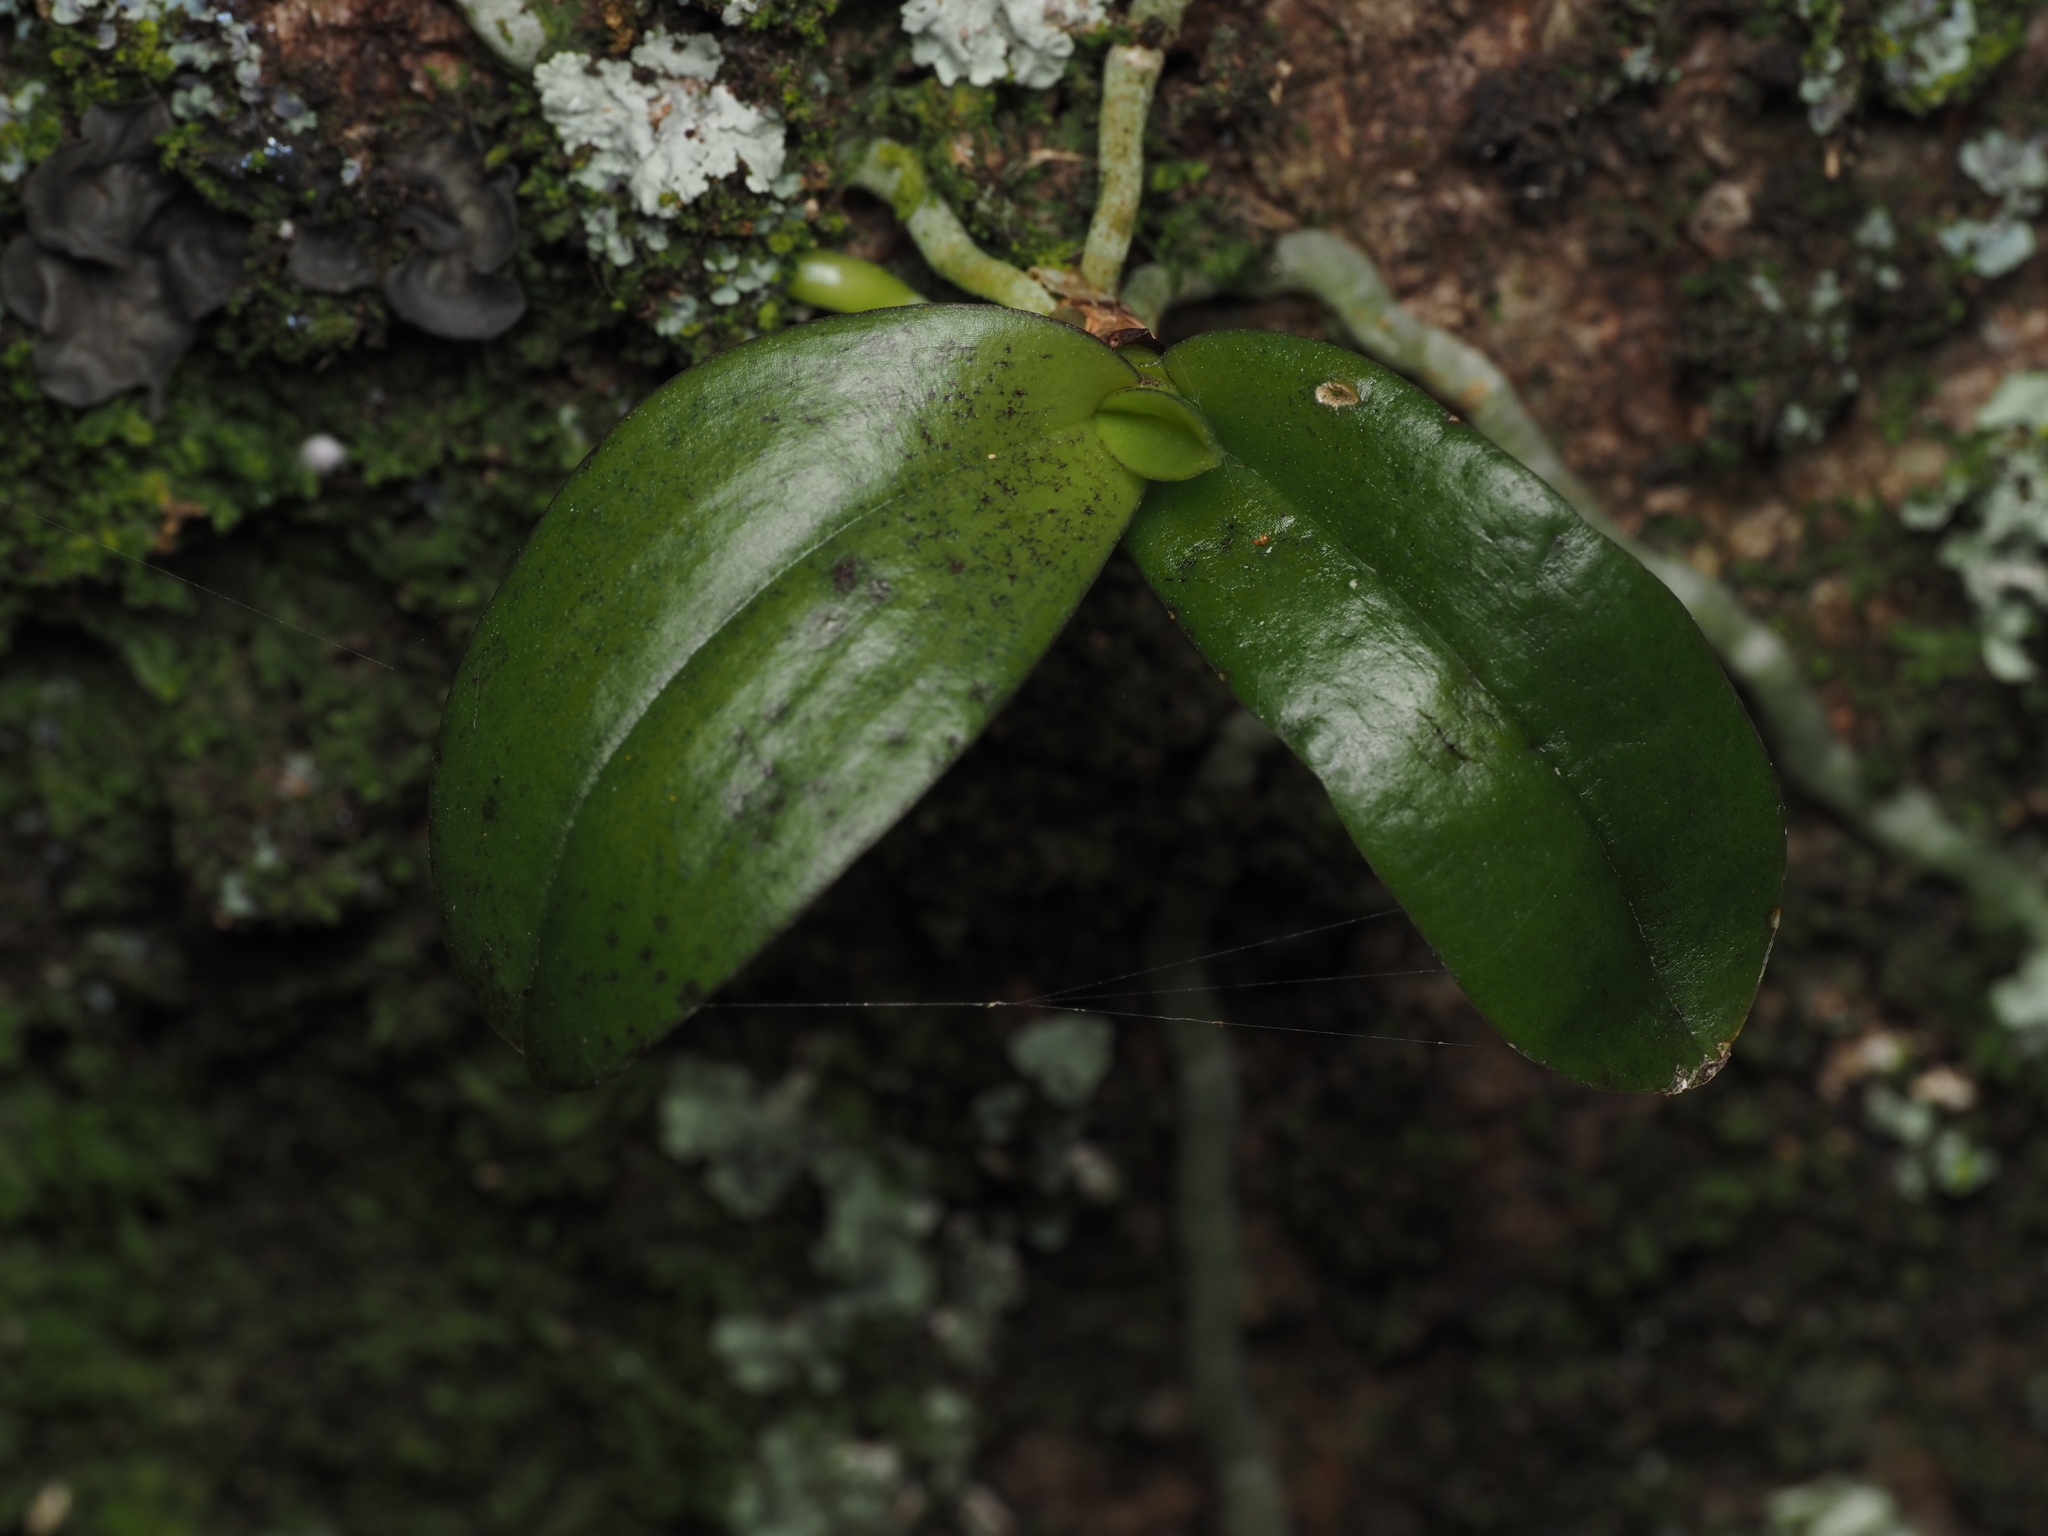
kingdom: Plantae
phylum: Tracheophyta
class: Liliopsida
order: Asparagales
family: Orchidaceae
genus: Drymoanthus
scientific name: Drymoanthus adversus
